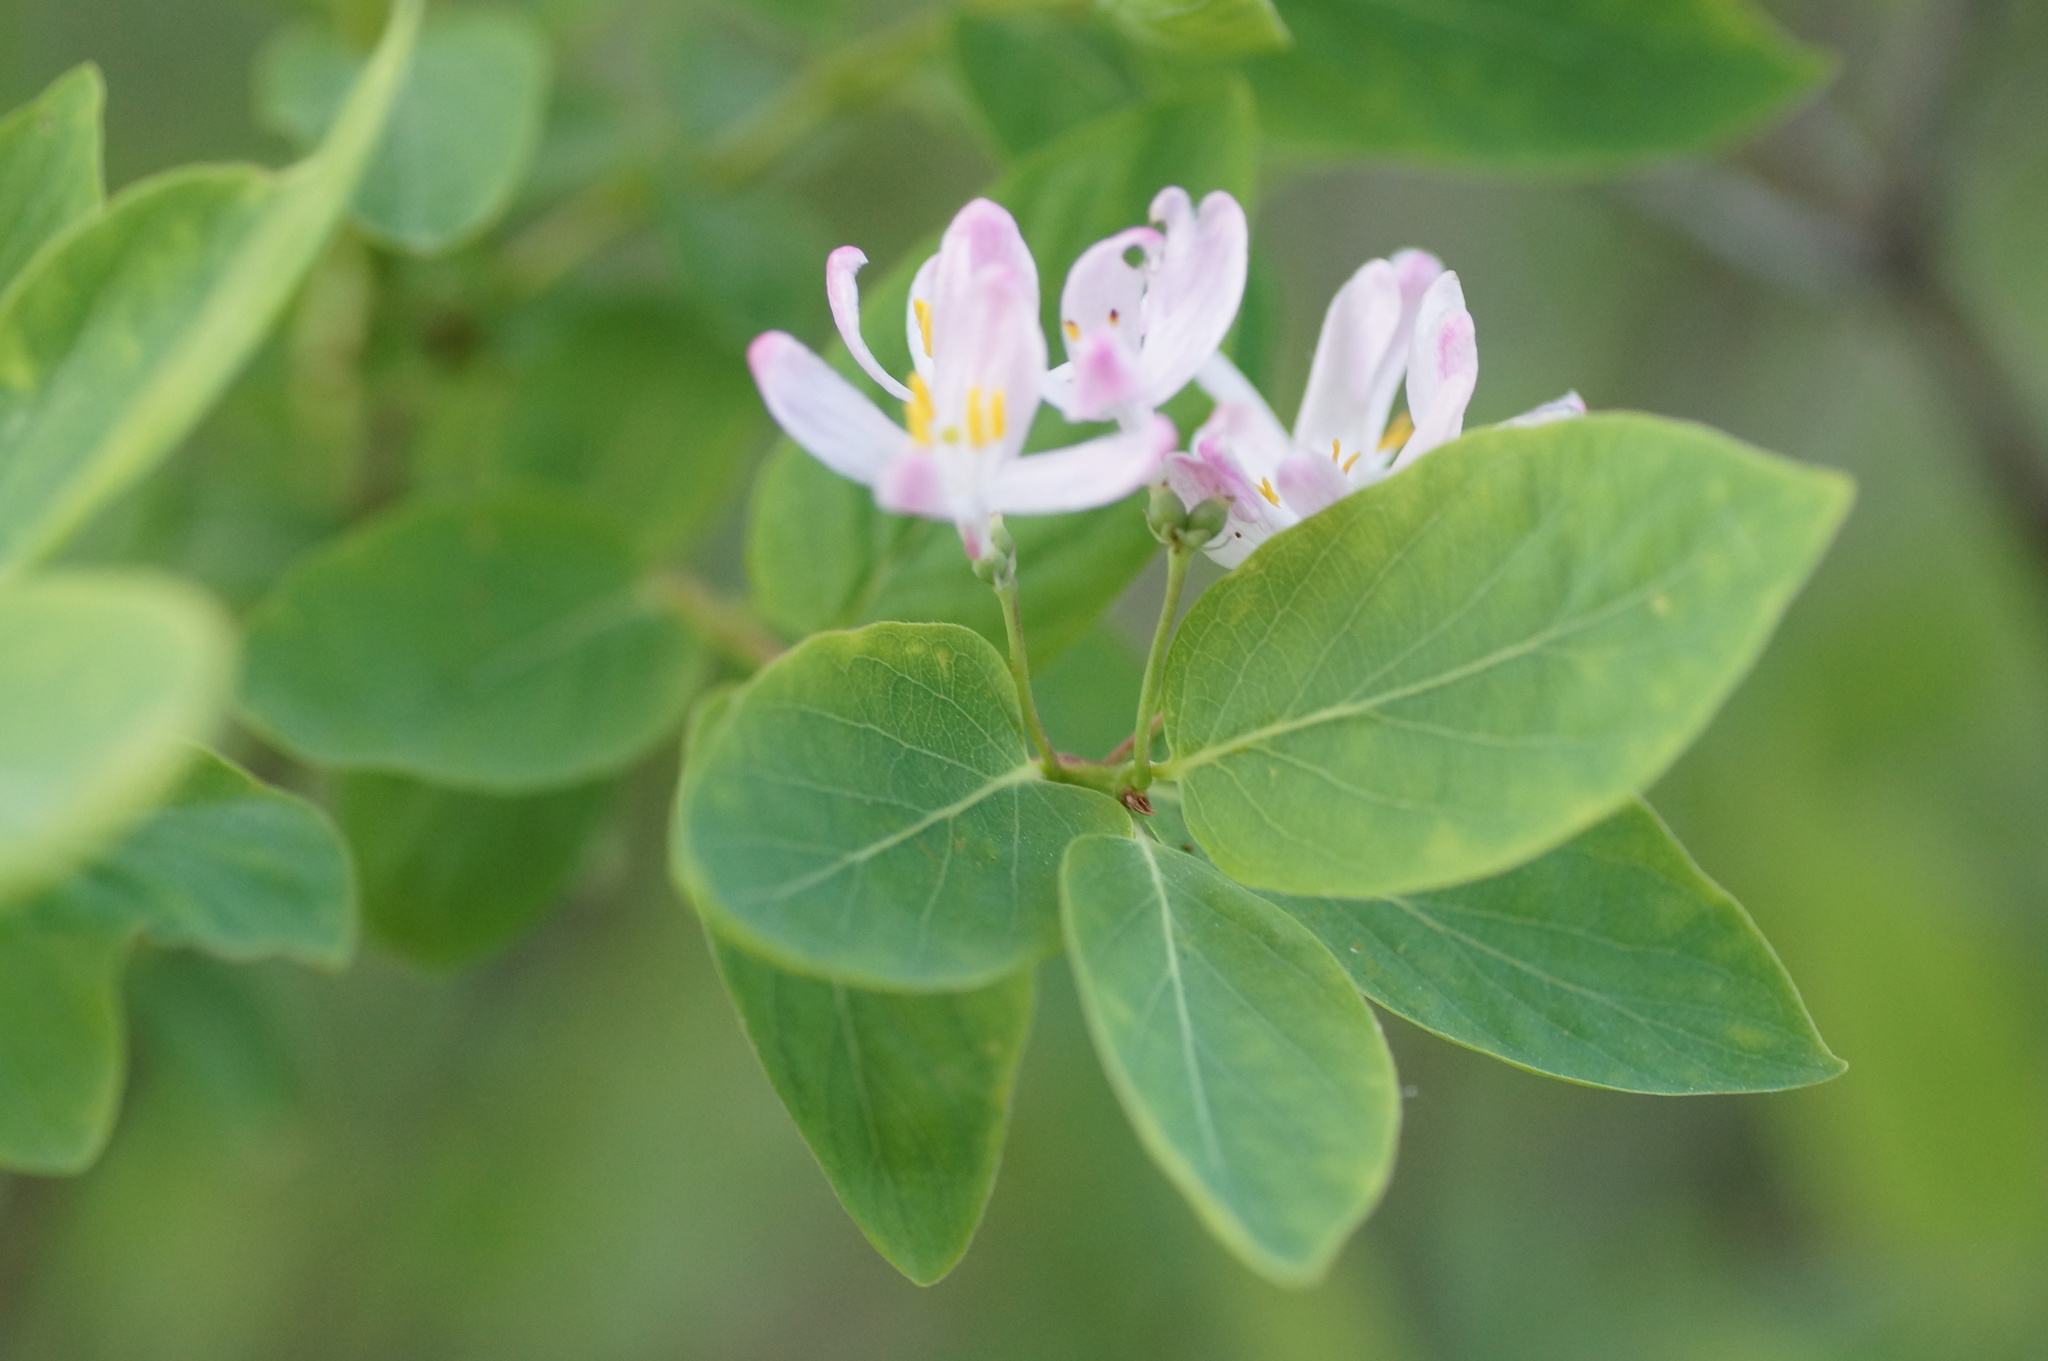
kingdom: Plantae
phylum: Tracheophyta
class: Magnoliopsida
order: Dipsacales
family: Caprifoliaceae
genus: Lonicera
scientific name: Lonicera tatarica
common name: Tatarian honeysuckle
